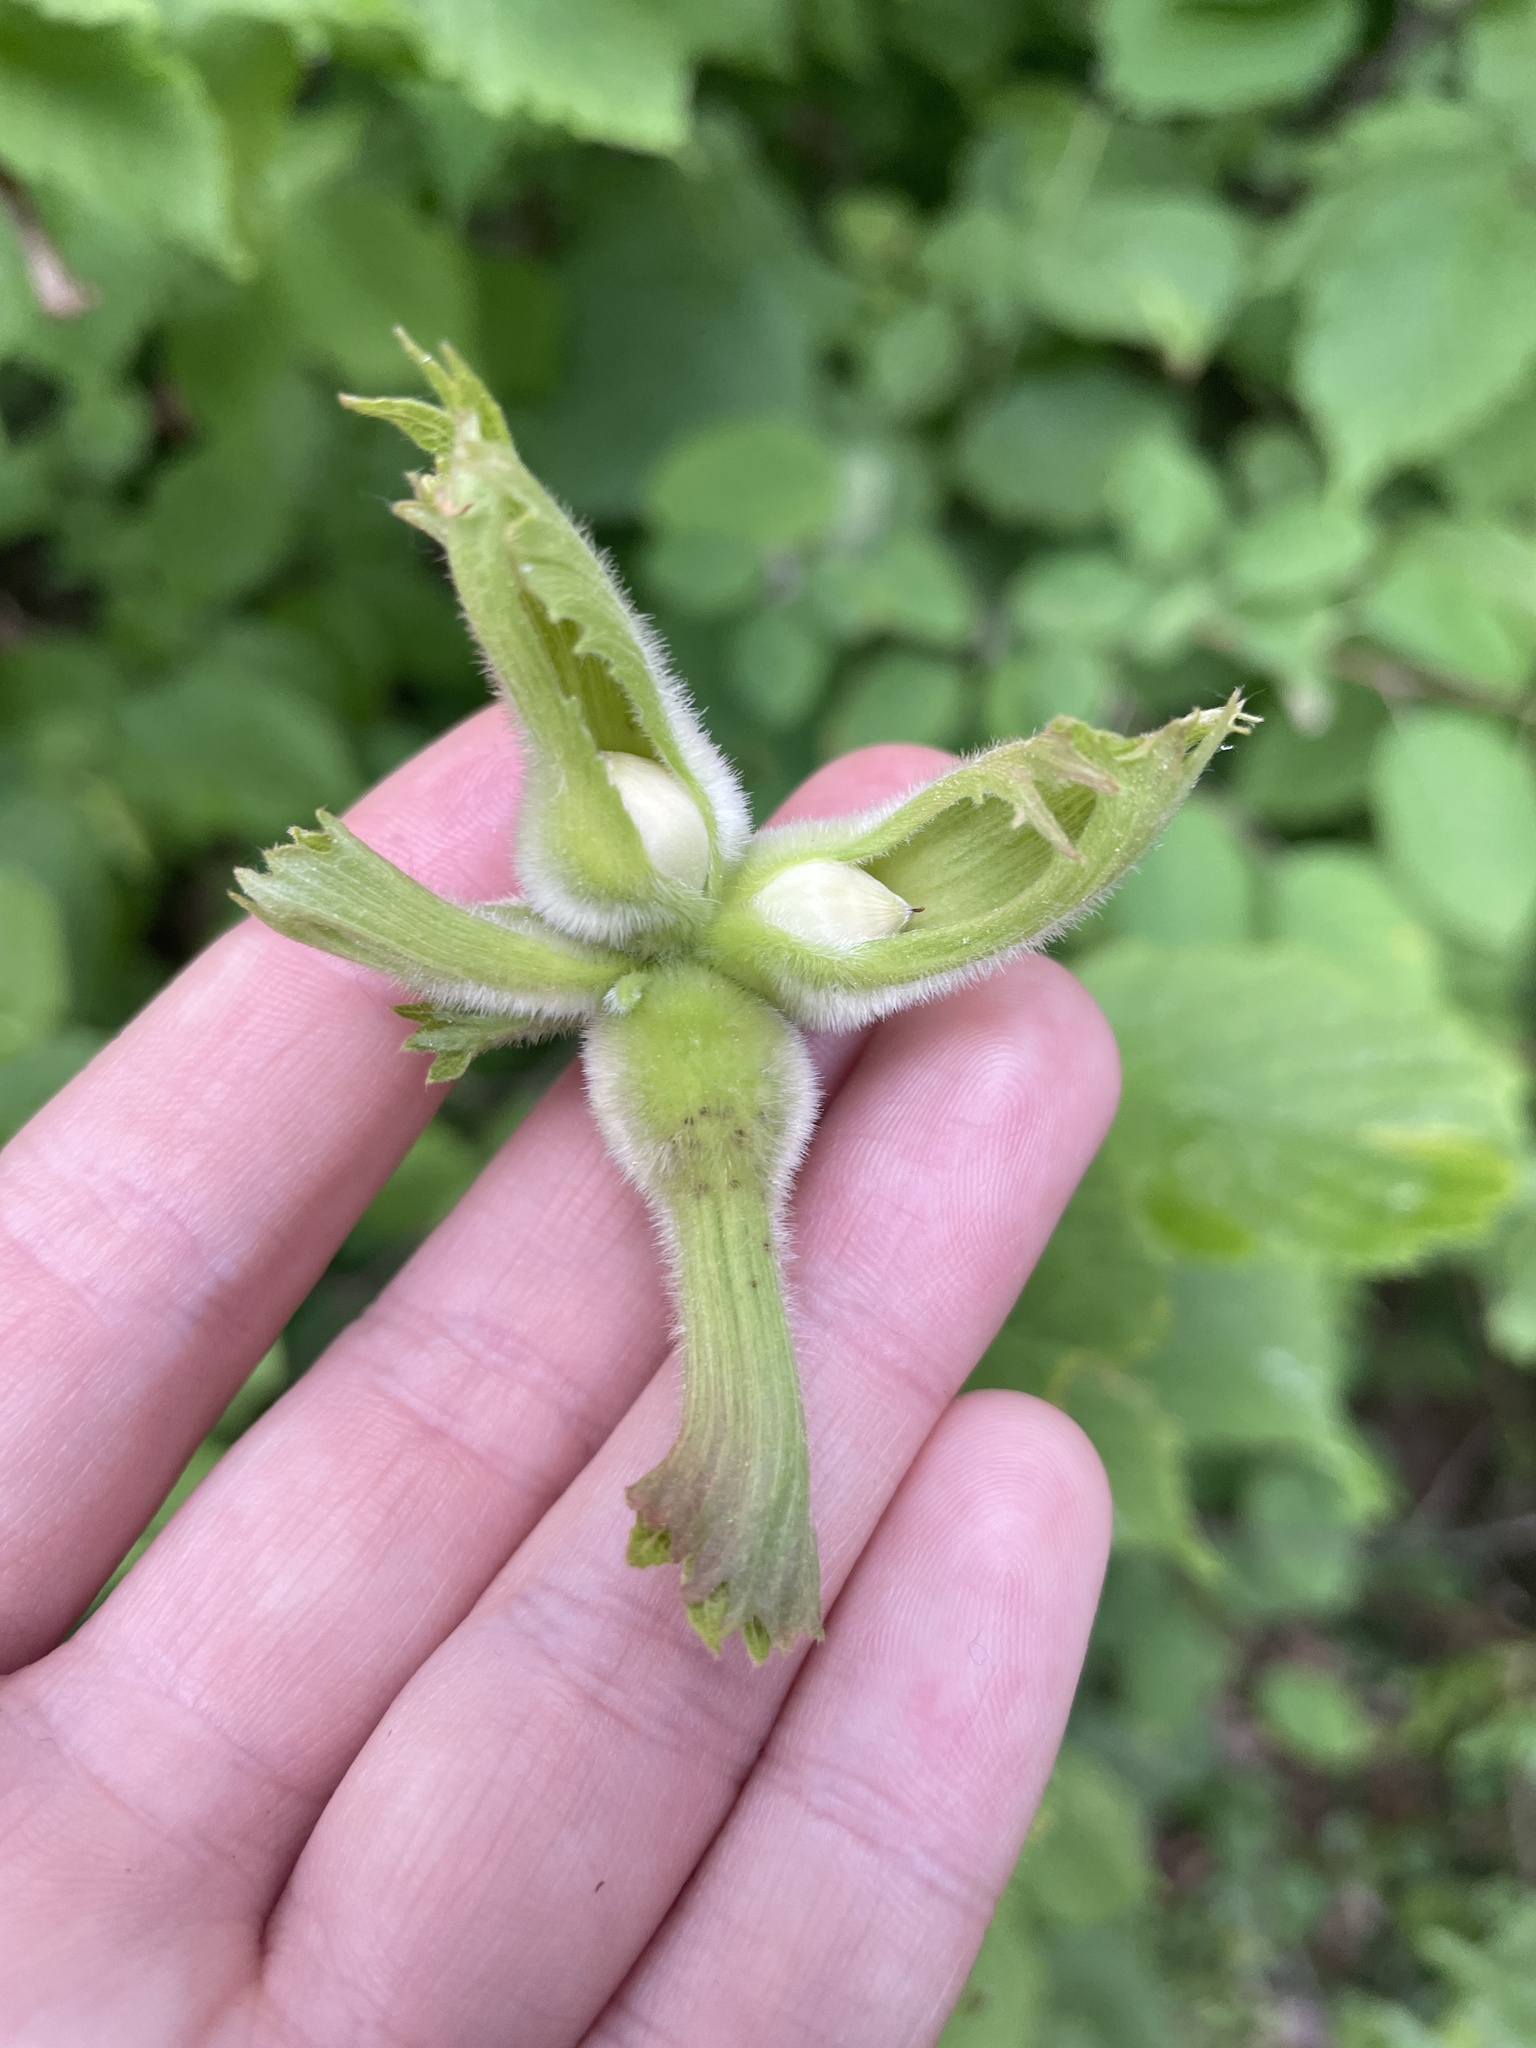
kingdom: Plantae
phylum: Tracheophyta
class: Magnoliopsida
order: Fagales
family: Betulaceae
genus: Corylus
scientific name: Corylus cornuta
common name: Beaked hazel
